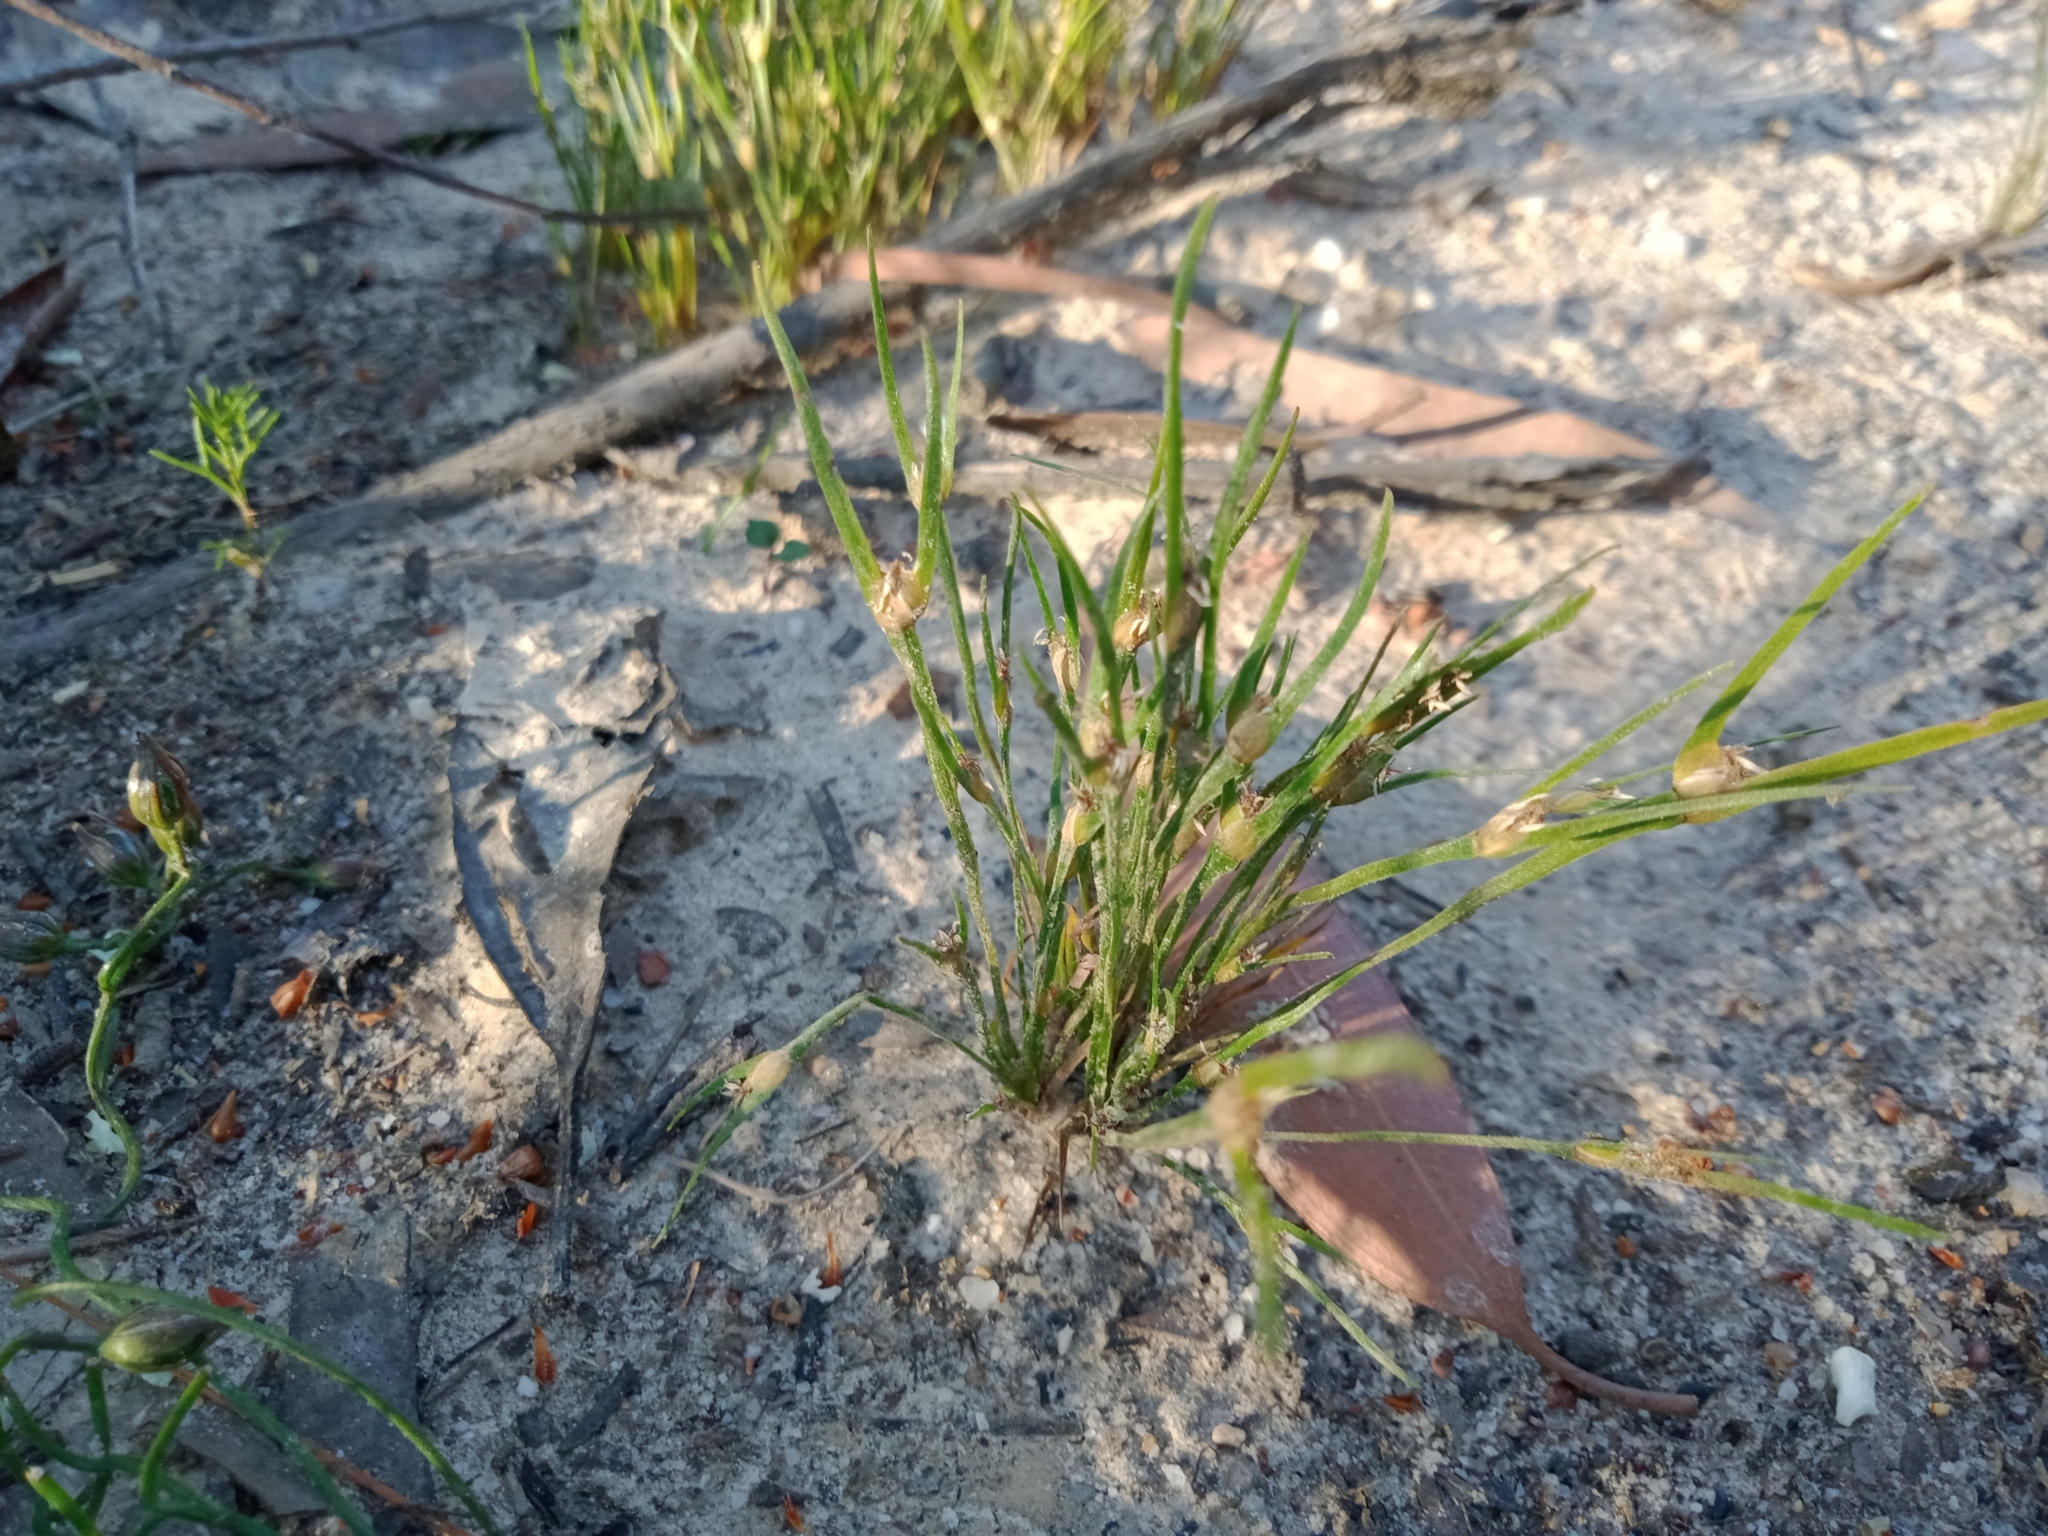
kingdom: Plantae
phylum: Tracheophyta
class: Liliopsida
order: Poales
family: Restionaceae
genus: Centrolepis
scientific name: Centrolepis aristata
